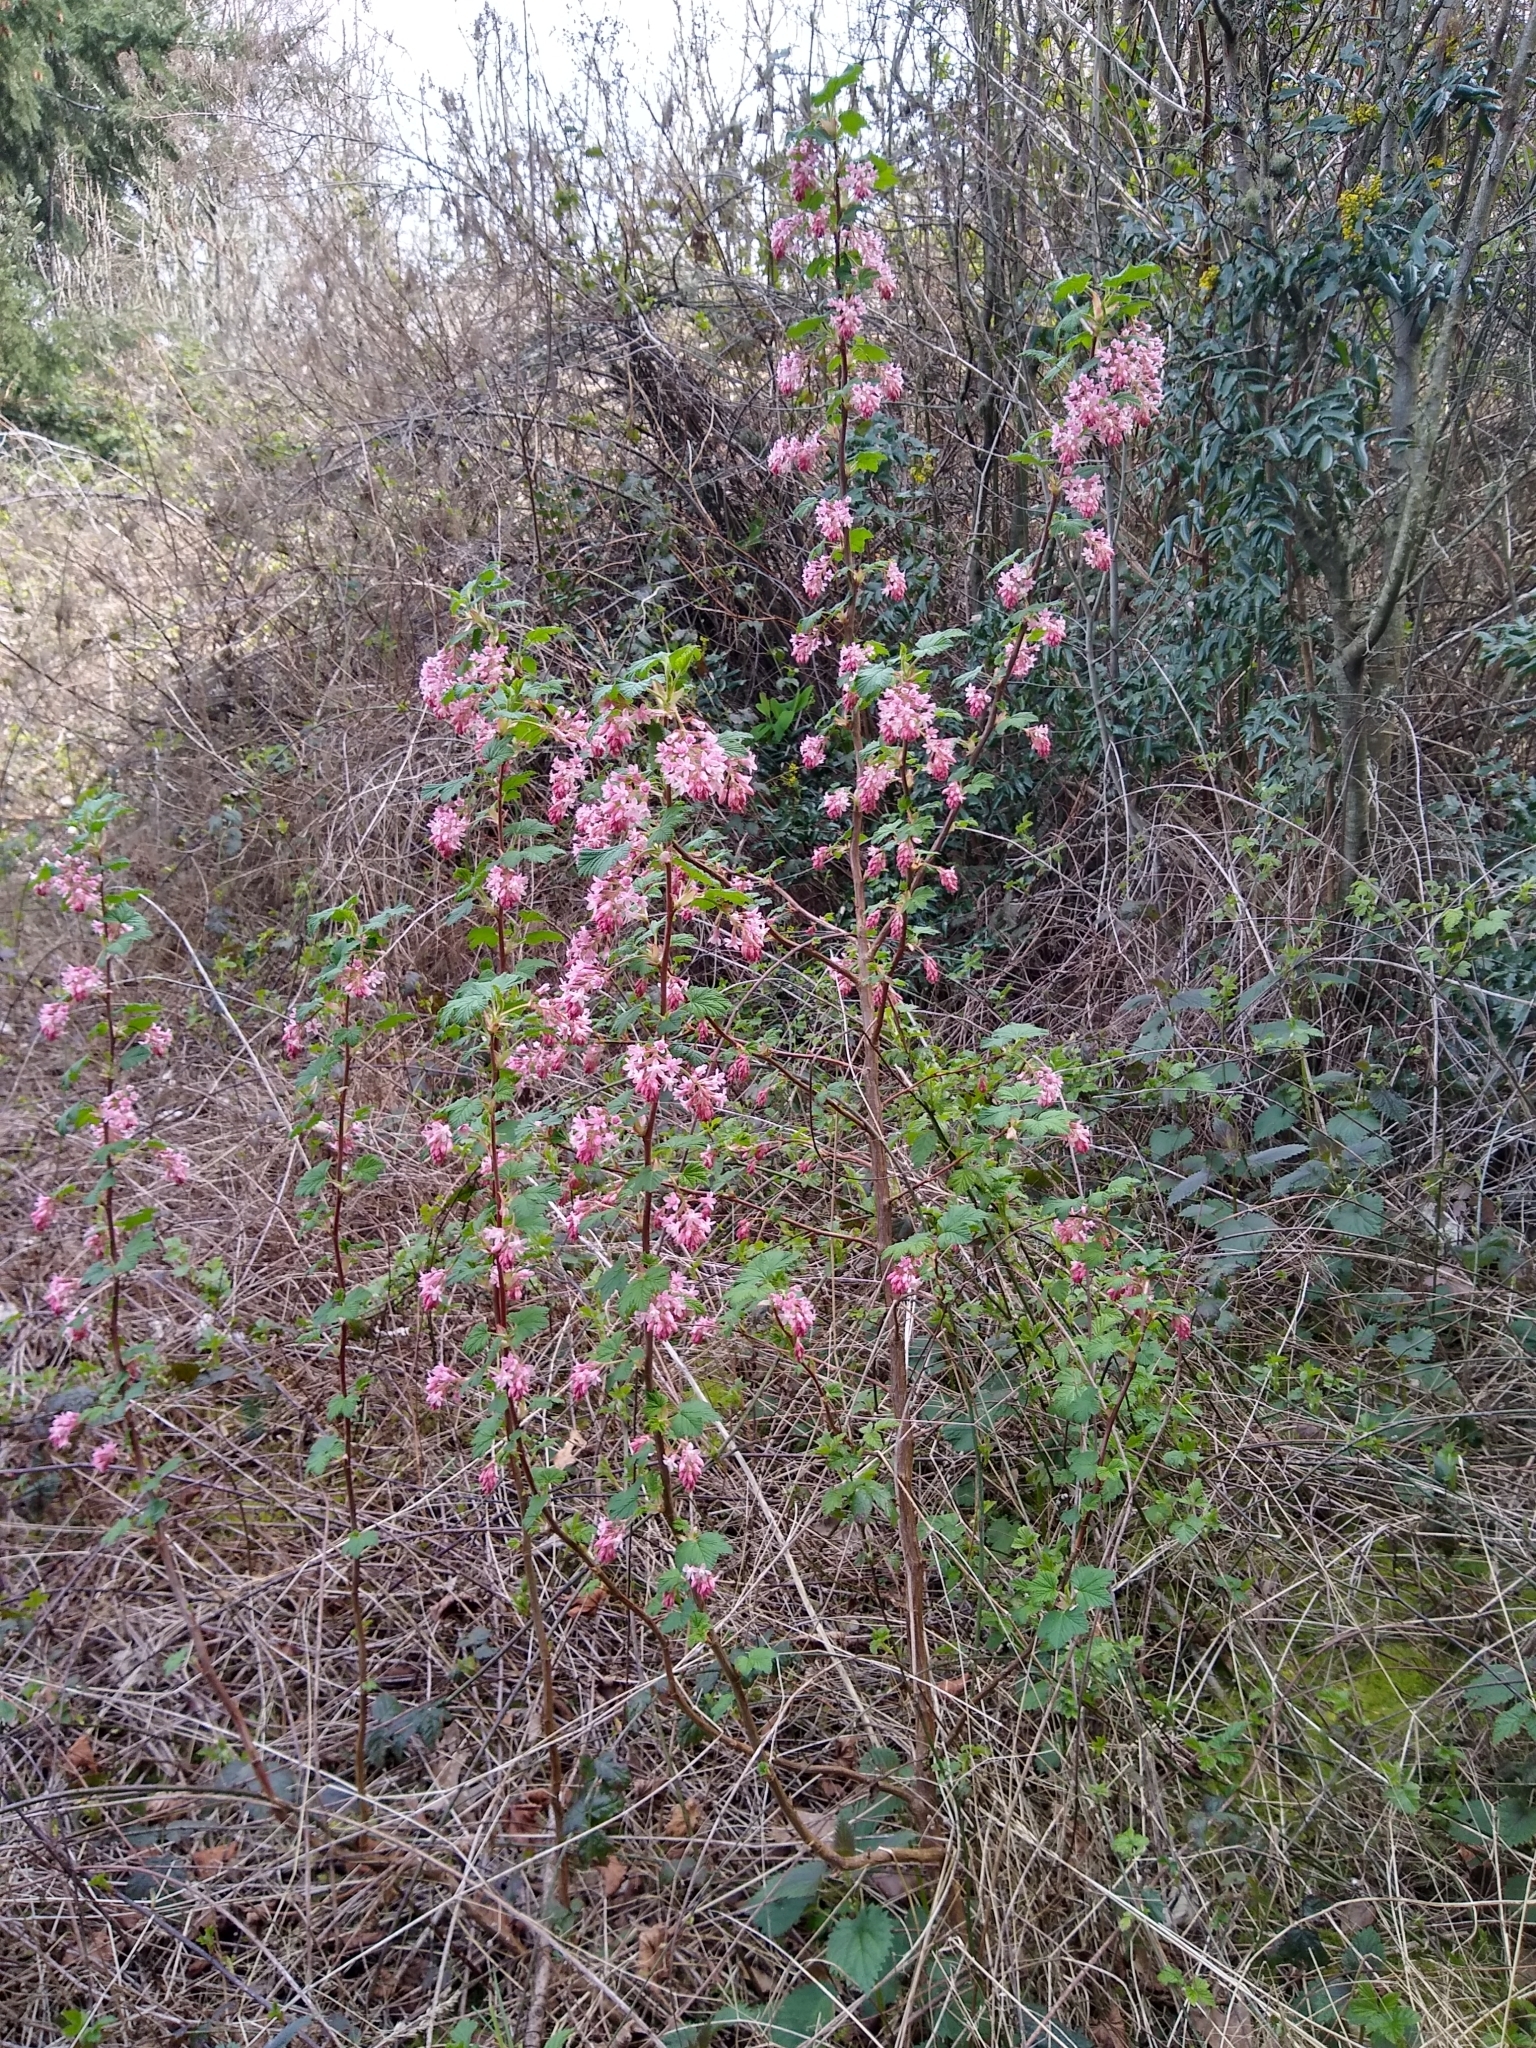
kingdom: Plantae
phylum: Tracheophyta
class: Magnoliopsida
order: Saxifragales
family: Grossulariaceae
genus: Ribes
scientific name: Ribes sanguineum
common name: Flowering currant
